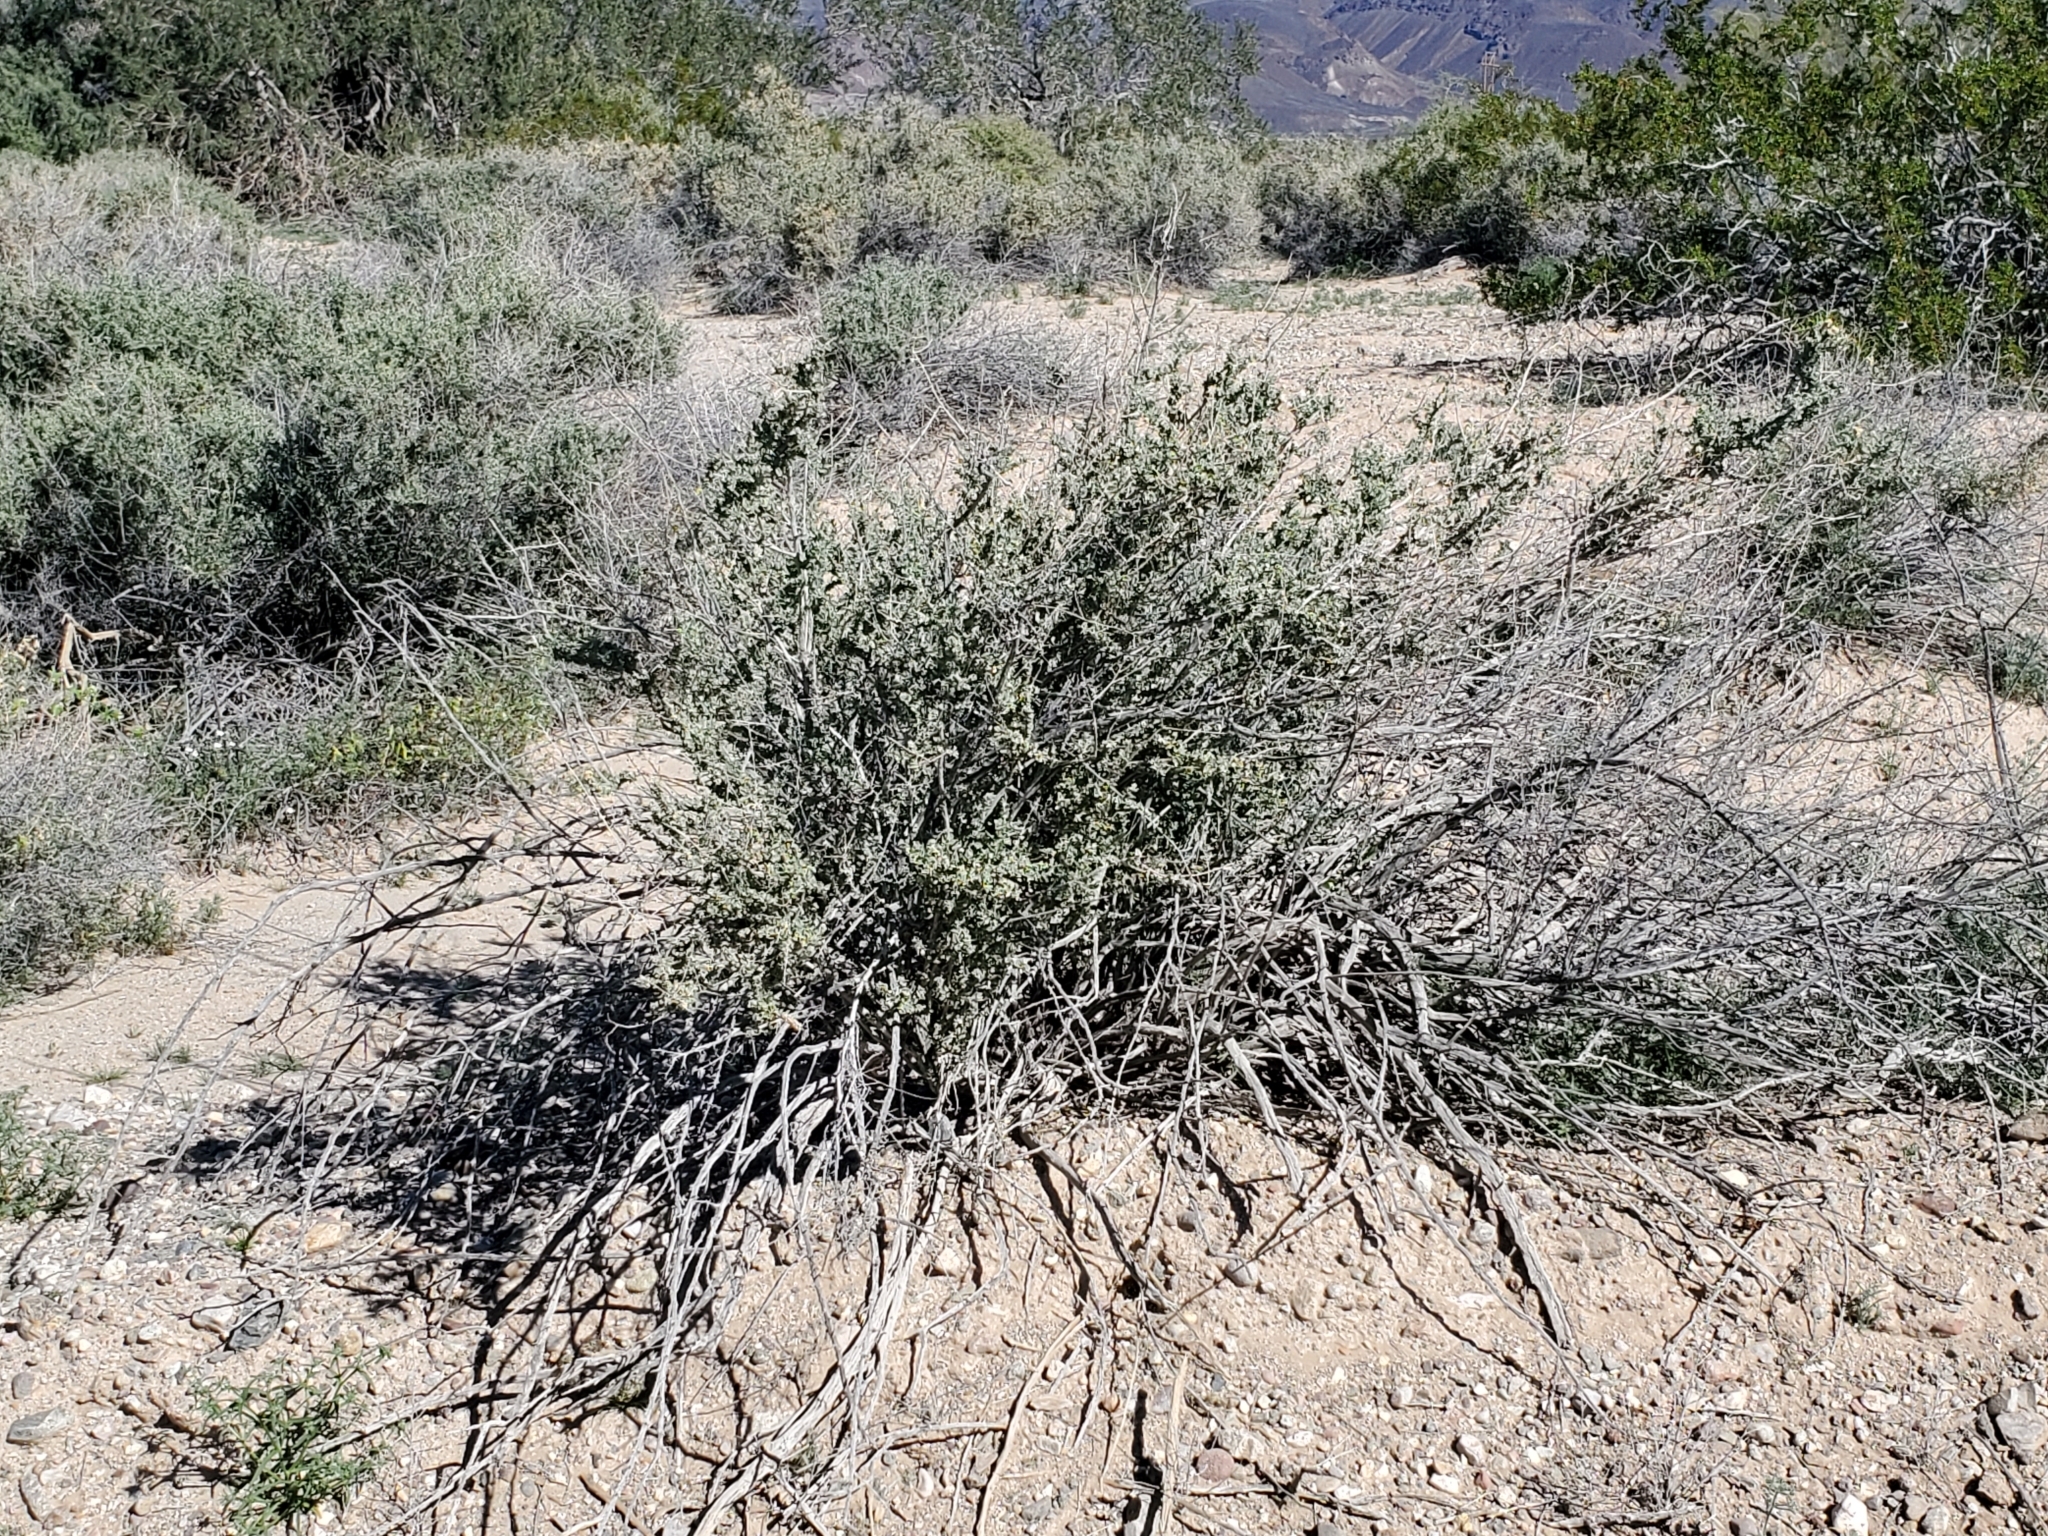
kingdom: Plantae
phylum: Tracheophyta
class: Magnoliopsida
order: Lamiales
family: Lamiaceae
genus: Condea
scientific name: Condea emoryi
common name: Chia
